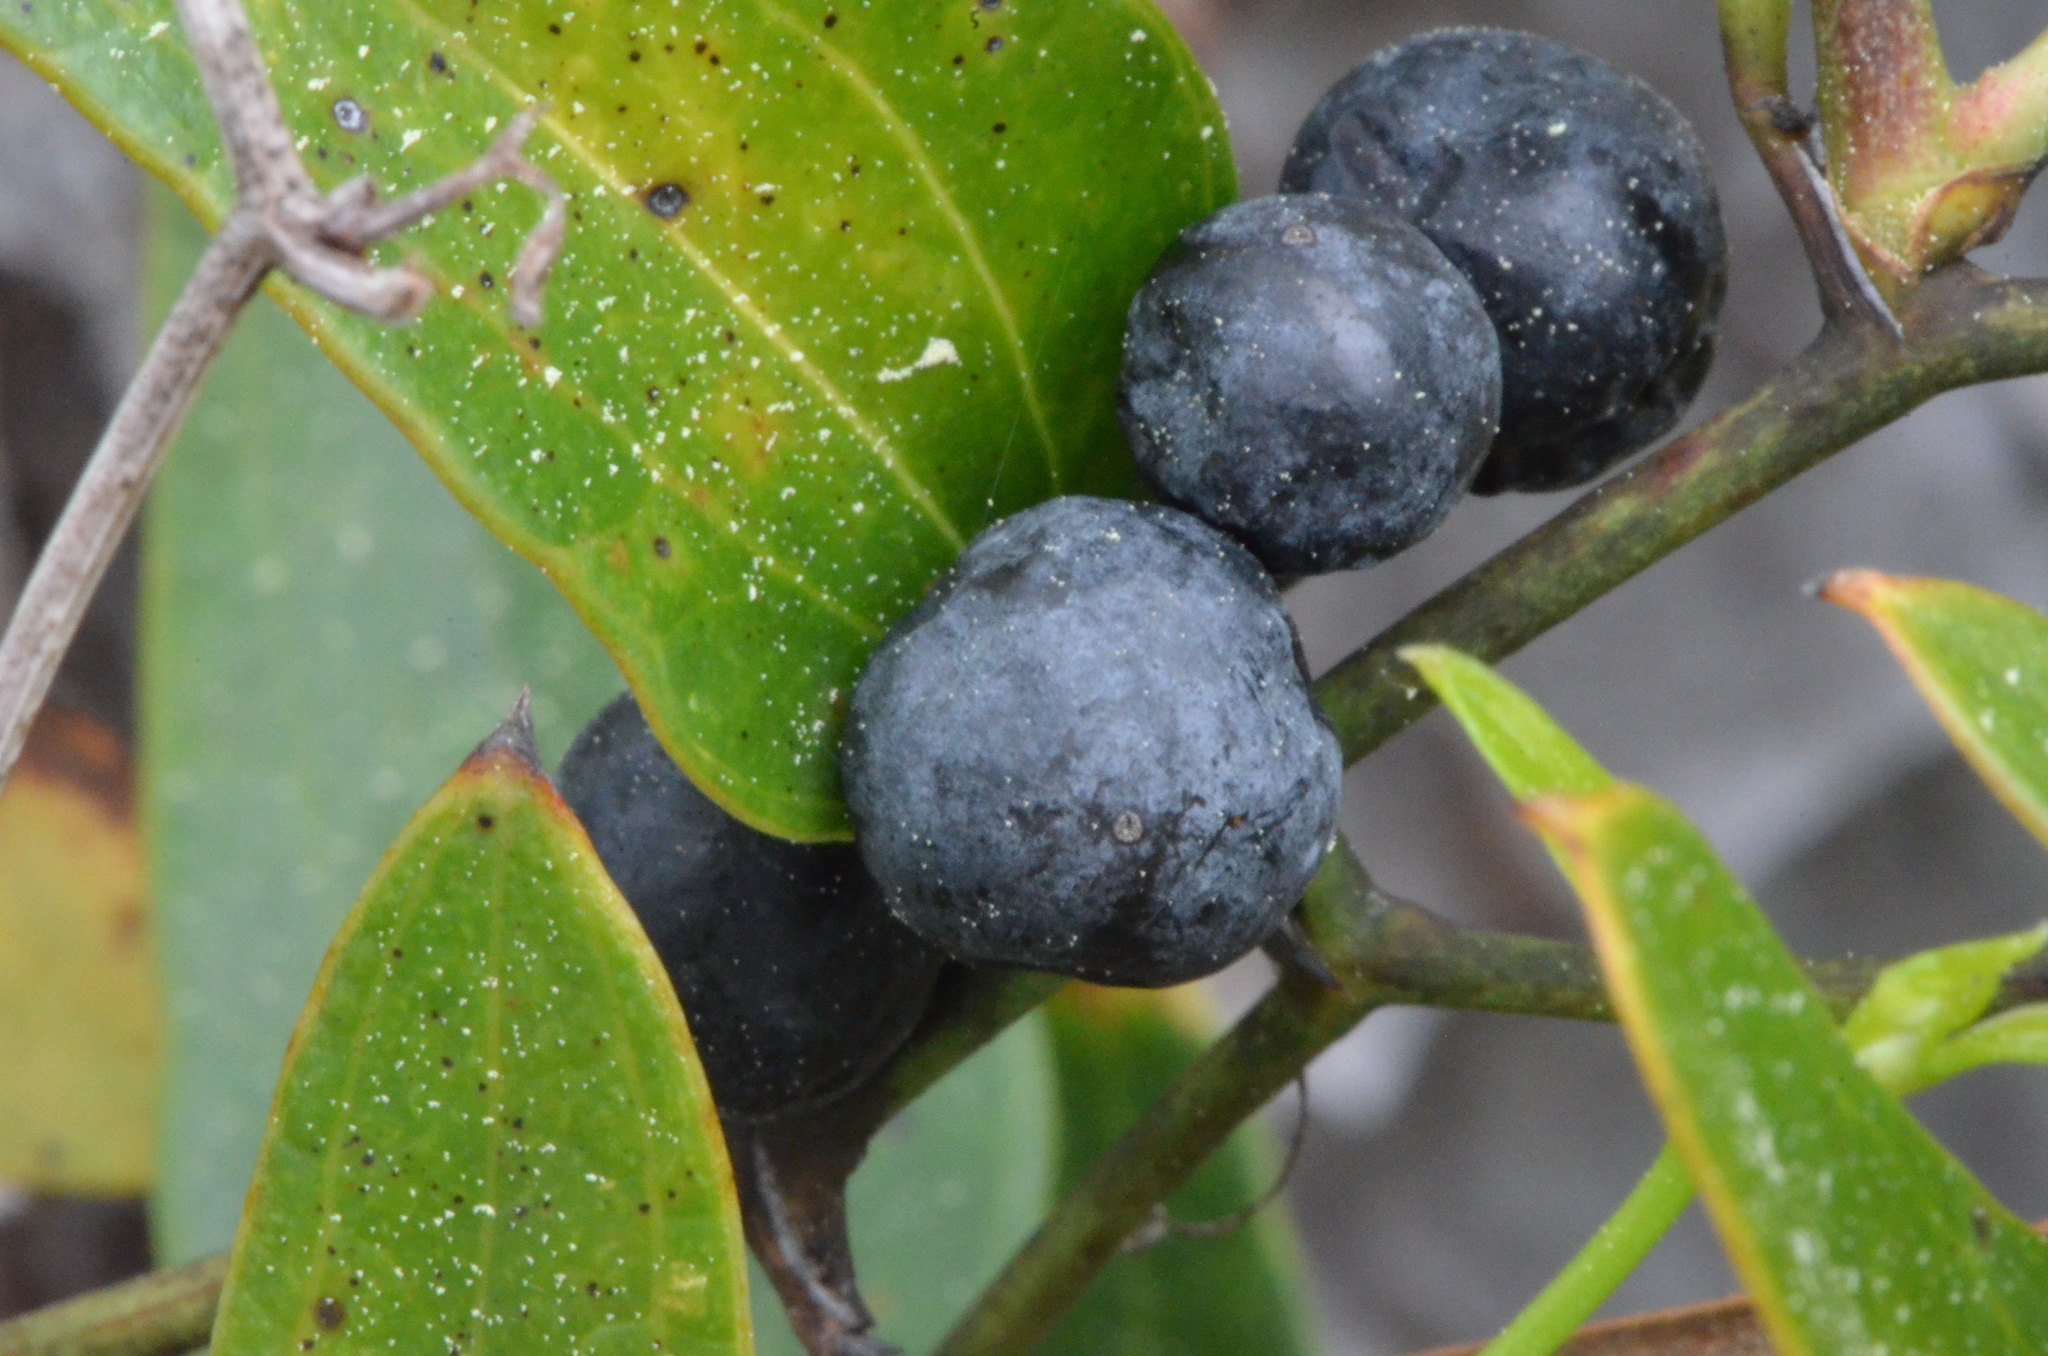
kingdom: Plantae
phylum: Tracheophyta
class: Liliopsida
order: Liliales
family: Smilacaceae
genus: Smilax
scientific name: Smilax auriculata
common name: Wild bamboo
